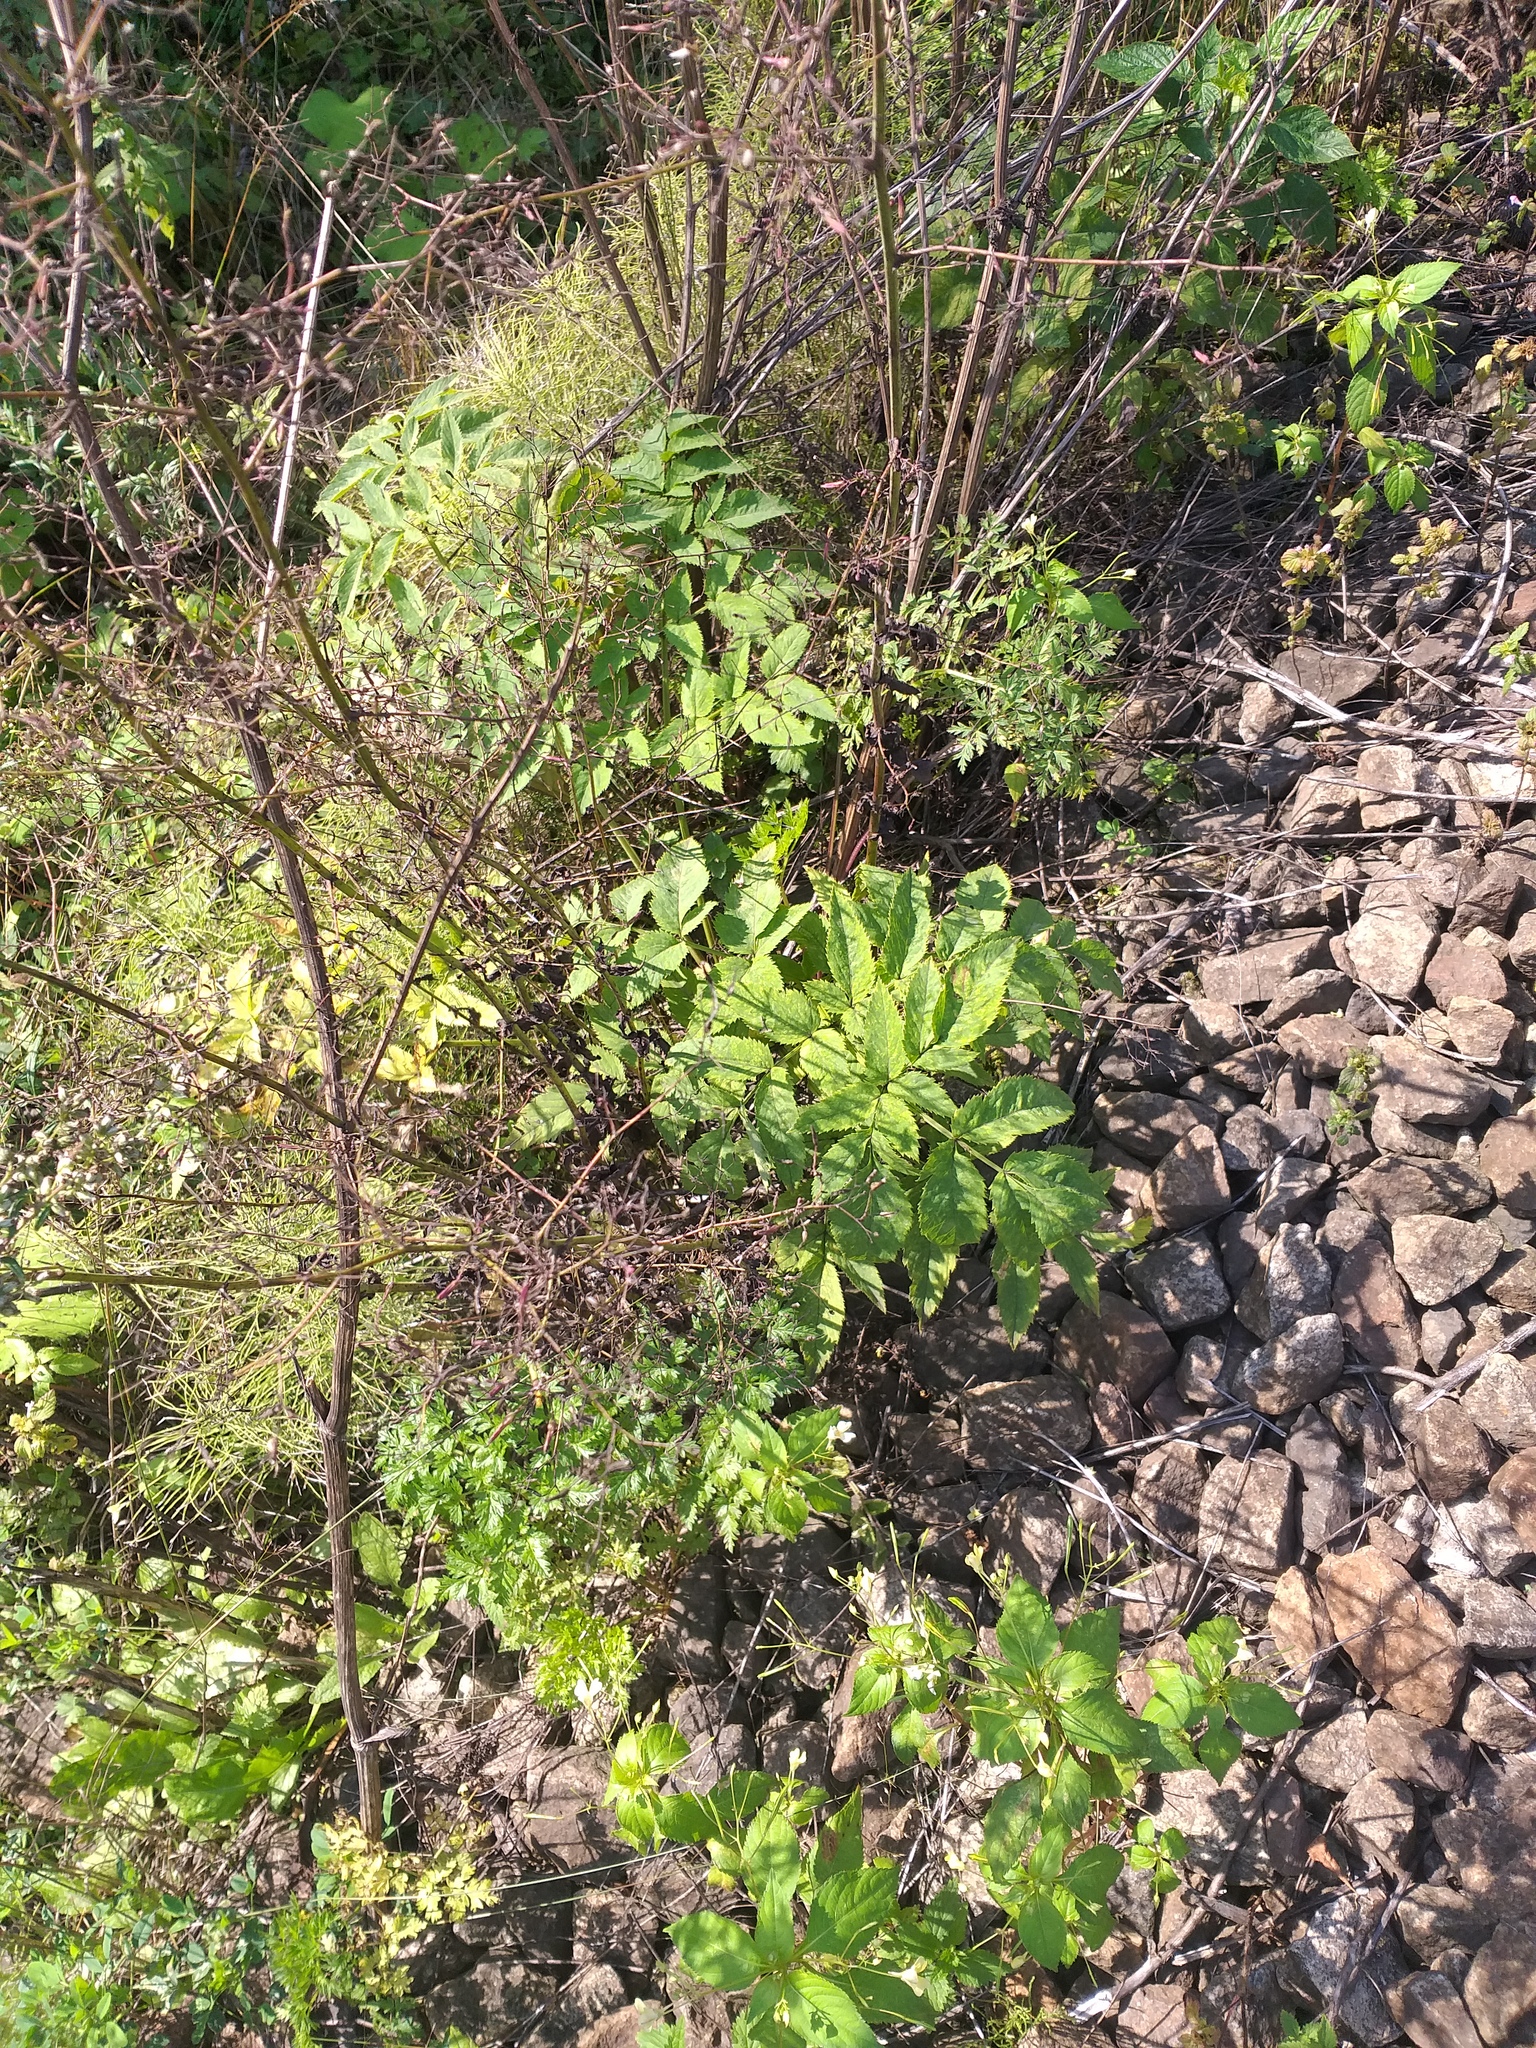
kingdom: Plantae
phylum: Tracheophyta
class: Magnoliopsida
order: Apiales
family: Apiaceae
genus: Angelica
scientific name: Angelica sylvestris
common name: Wild angelica
